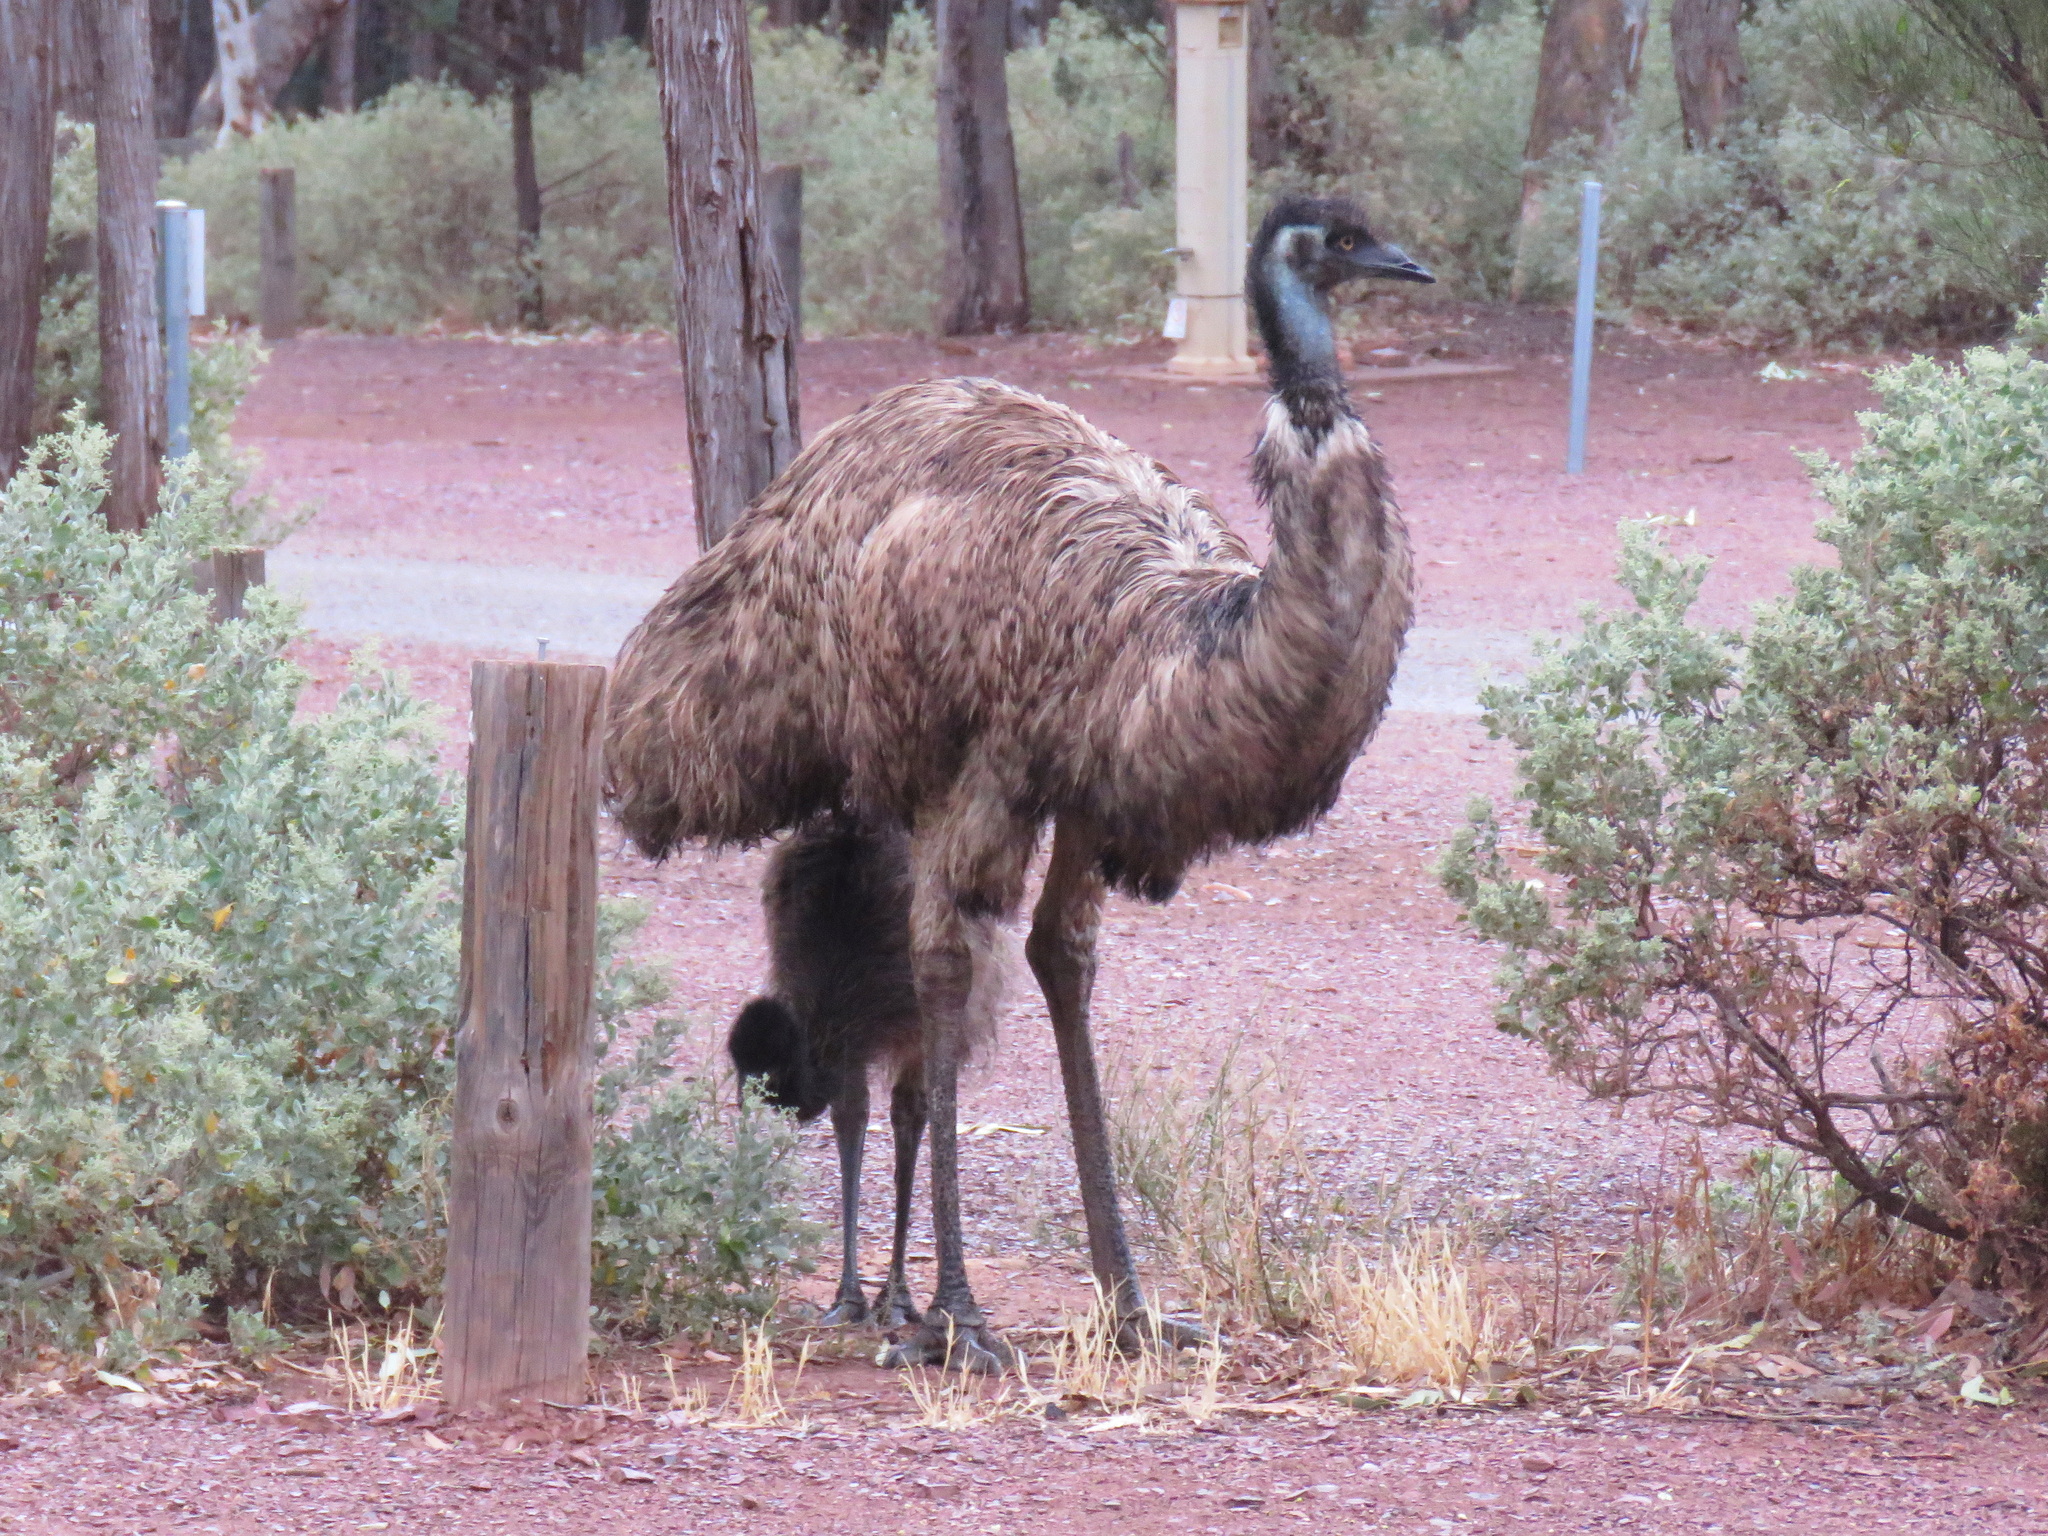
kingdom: Animalia
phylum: Chordata
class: Aves
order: Casuariiformes
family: Dromaiidae
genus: Dromaius
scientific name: Dromaius novaehollandiae
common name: Emu
